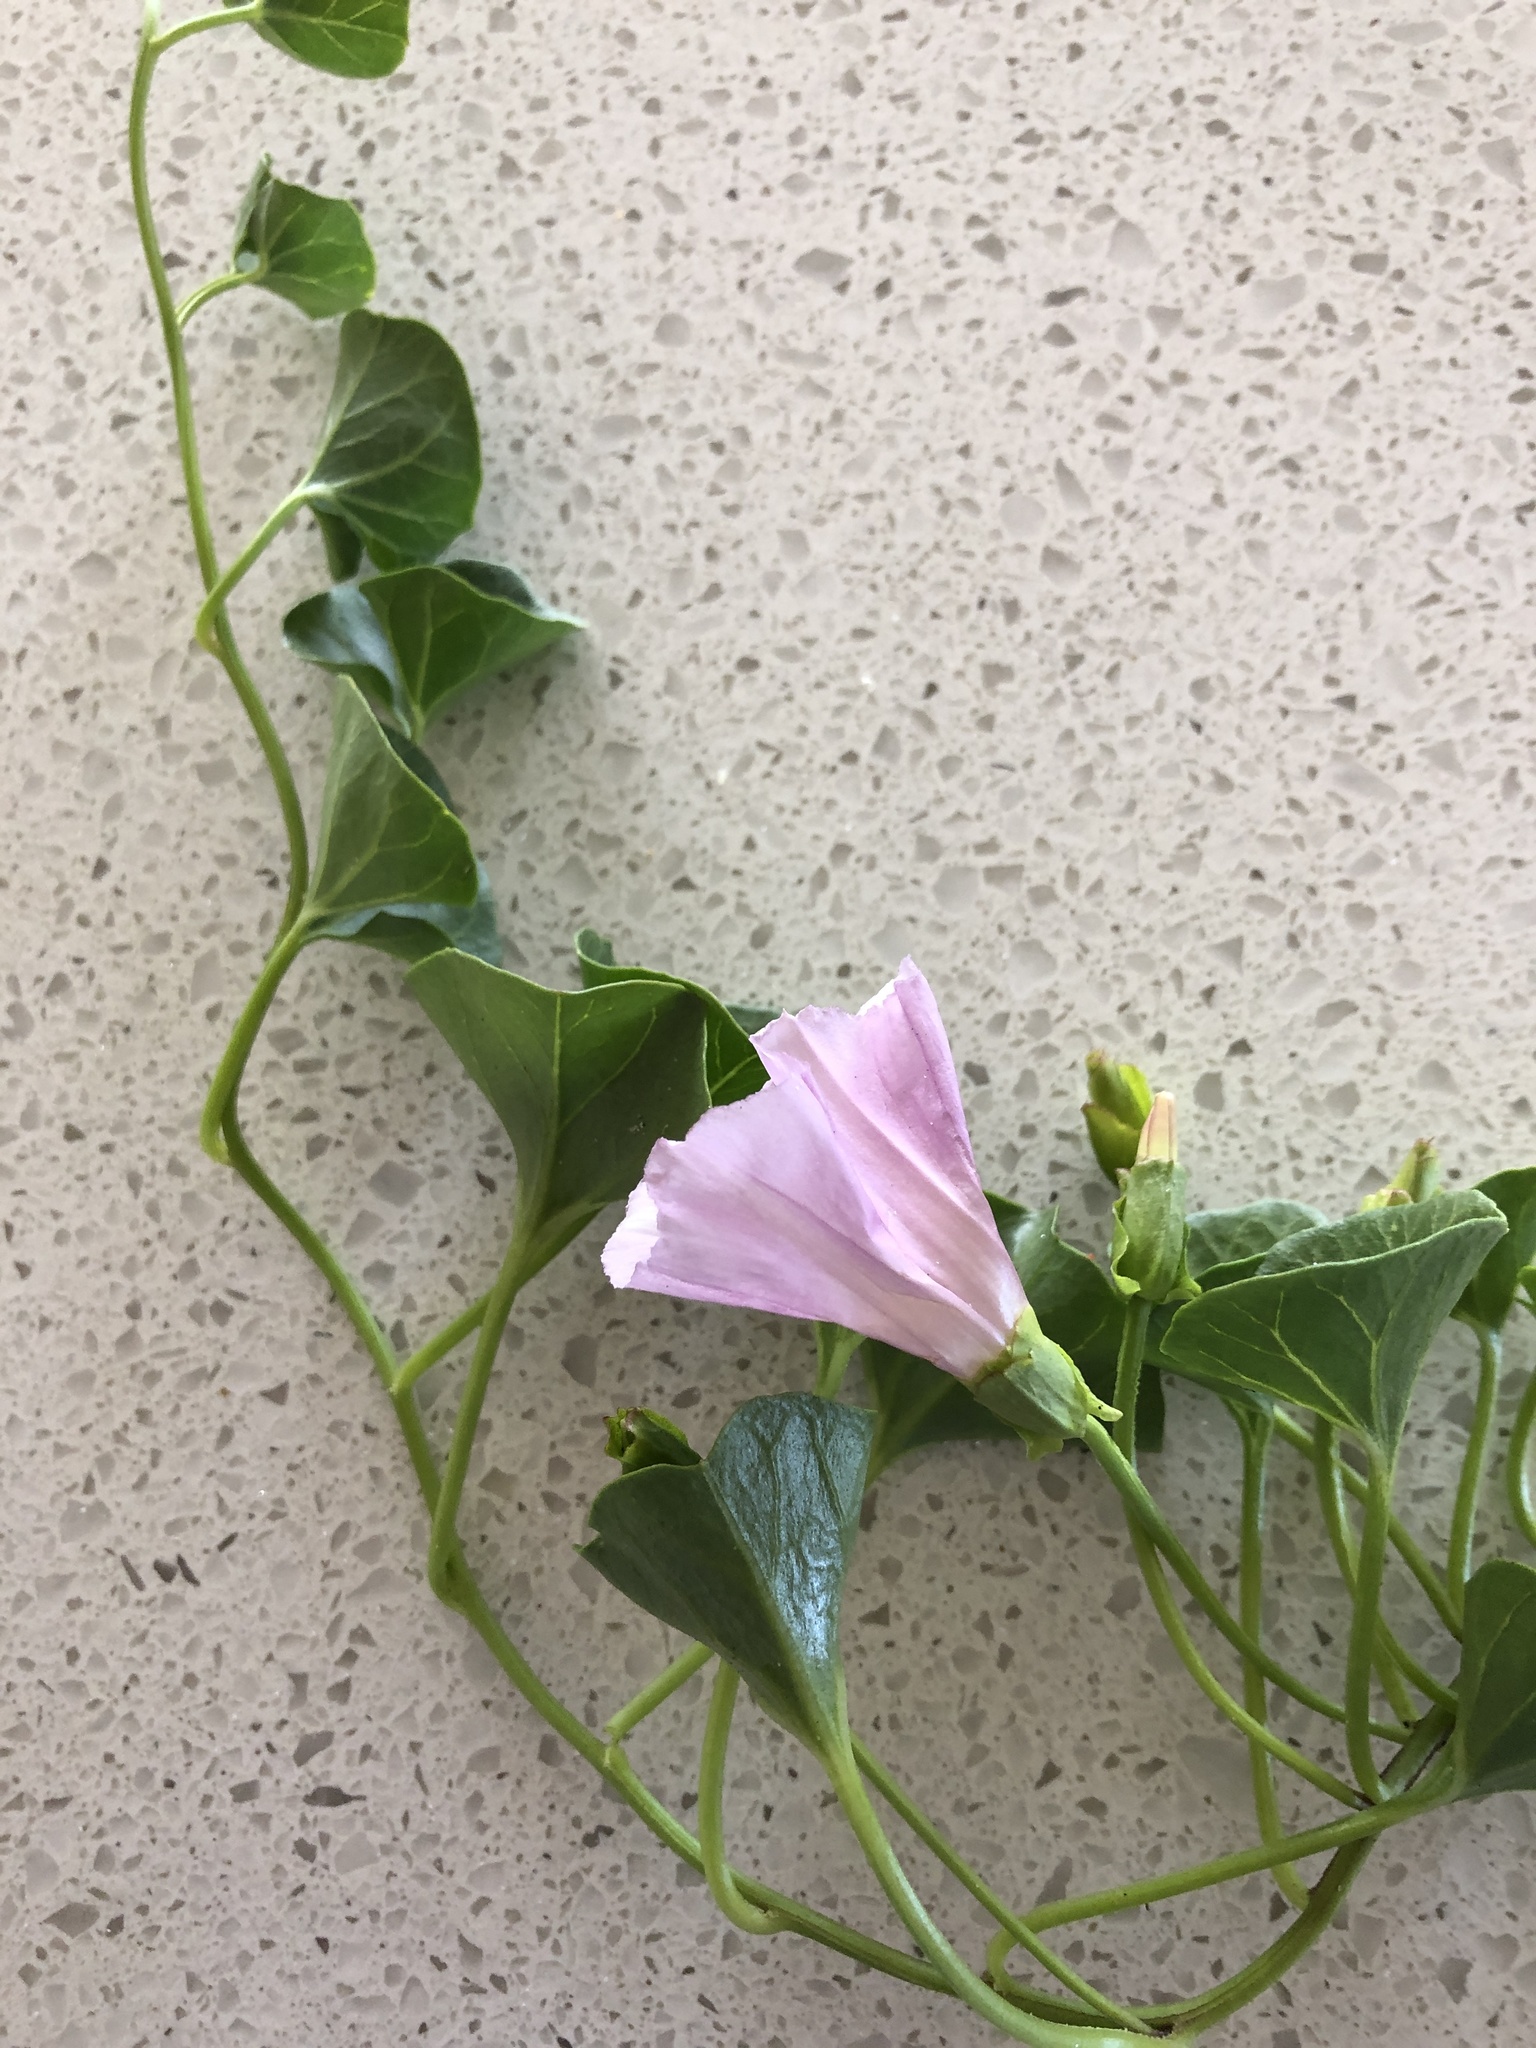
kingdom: Plantae
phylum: Tracheophyta
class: Magnoliopsida
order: Solanales
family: Convolvulaceae
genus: Calystegia
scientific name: Calystegia soldanella
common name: Sea bindweed
